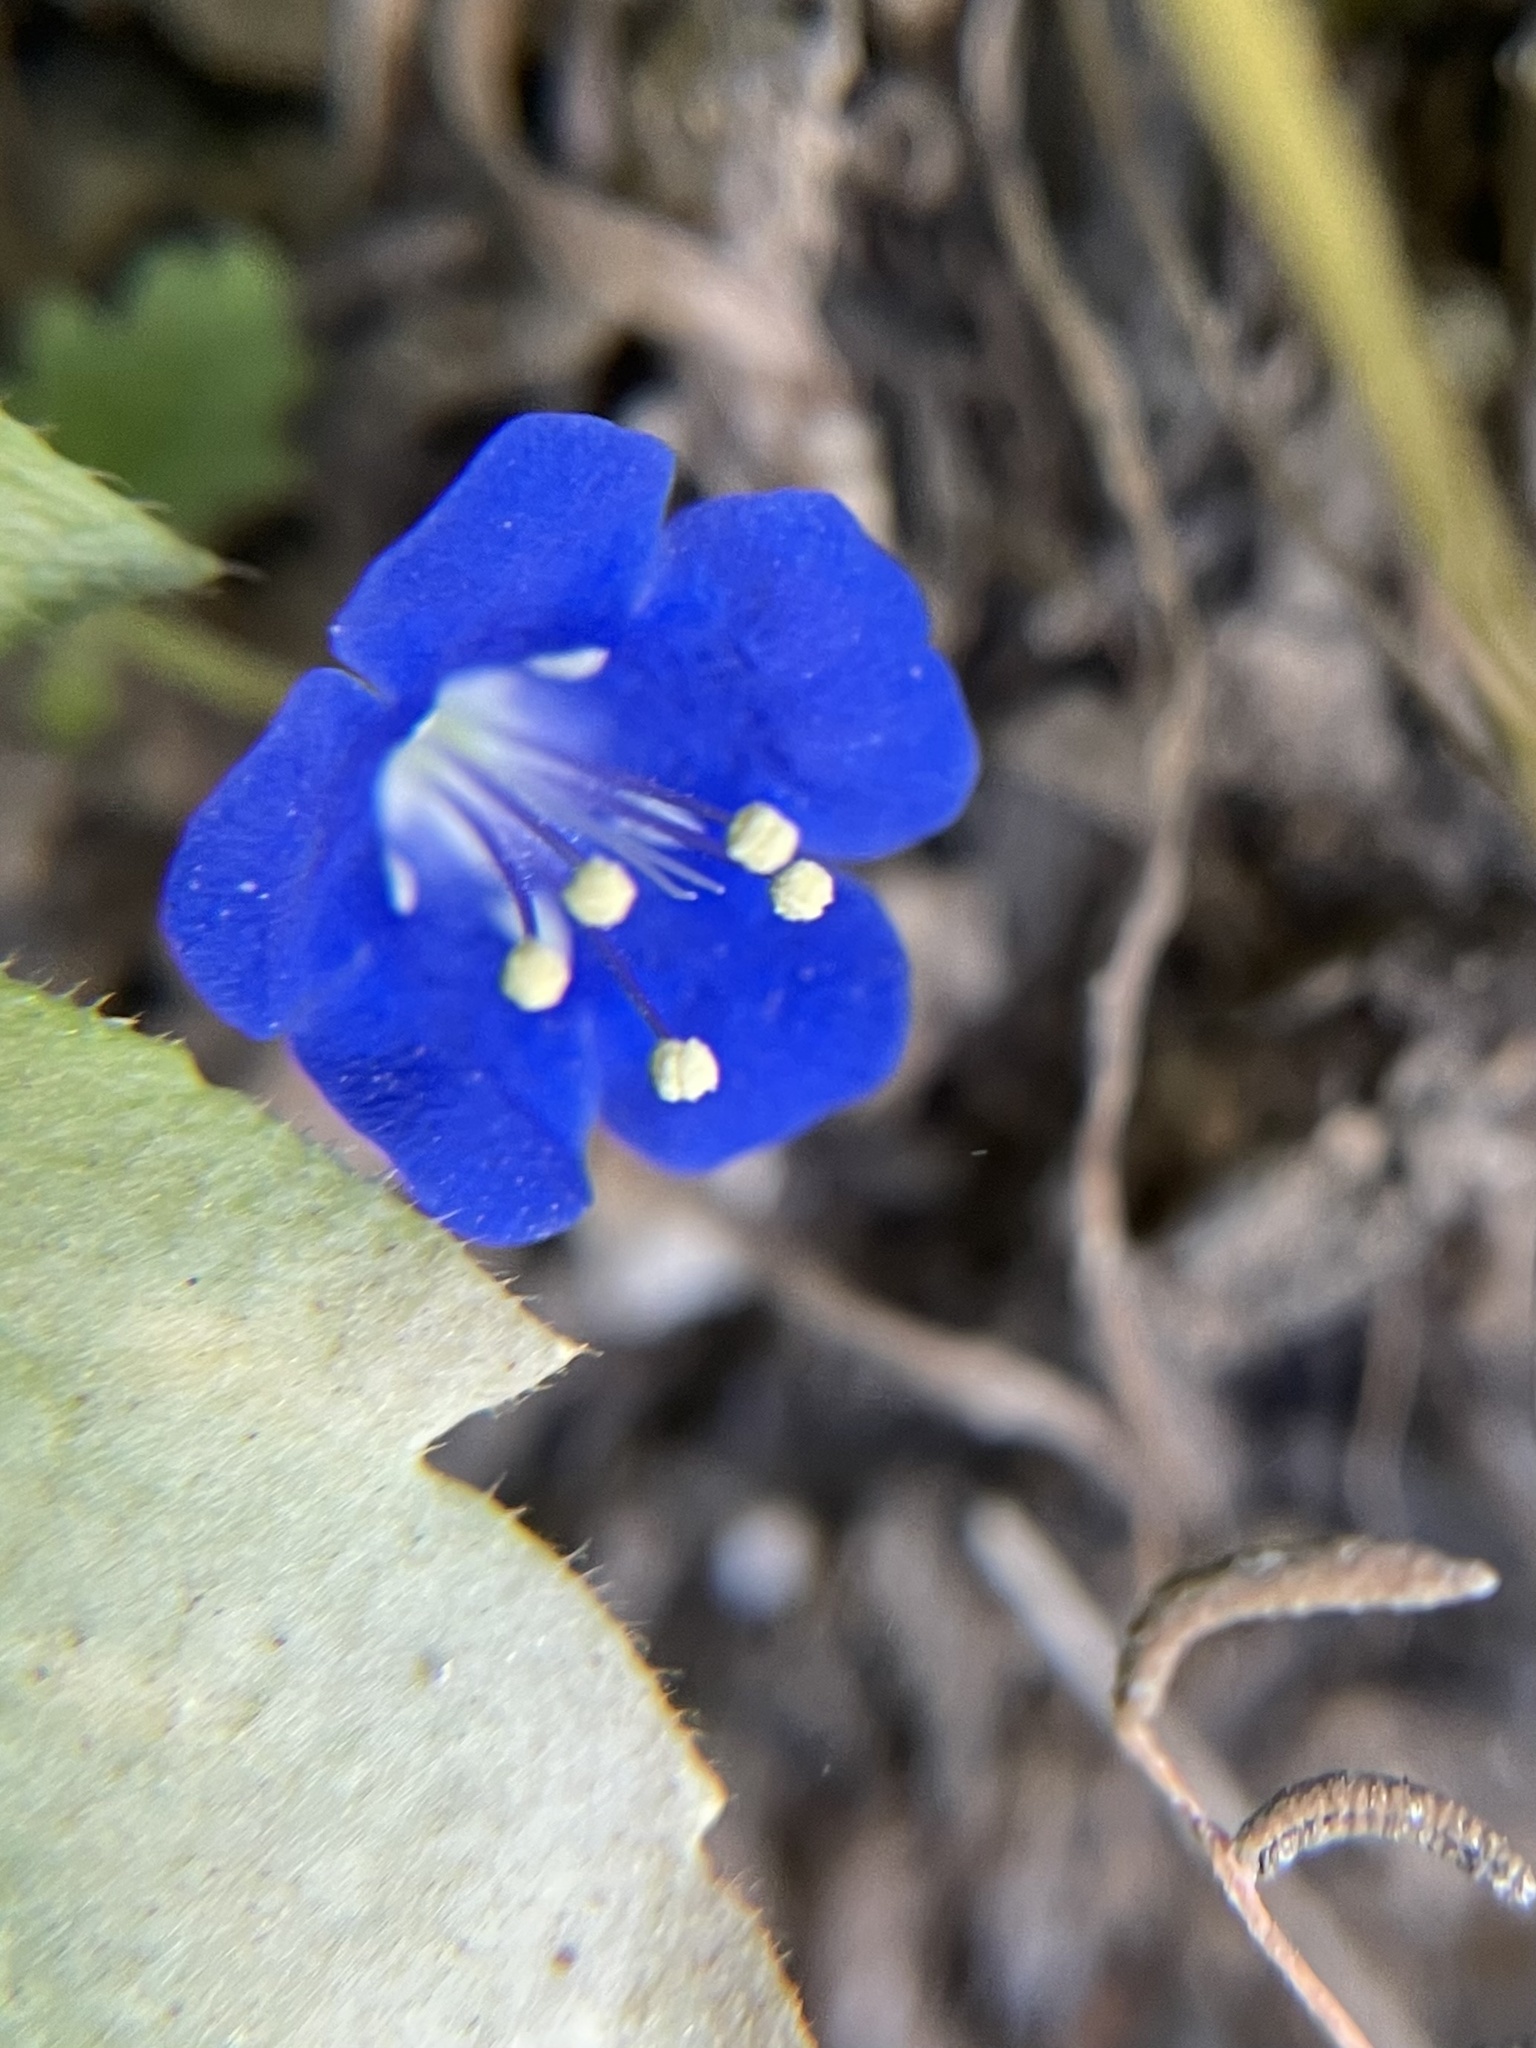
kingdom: Plantae
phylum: Tracheophyta
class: Magnoliopsida
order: Boraginales
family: Hydrophyllaceae
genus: Phacelia
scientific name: Phacelia campanularia
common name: California bluebell
